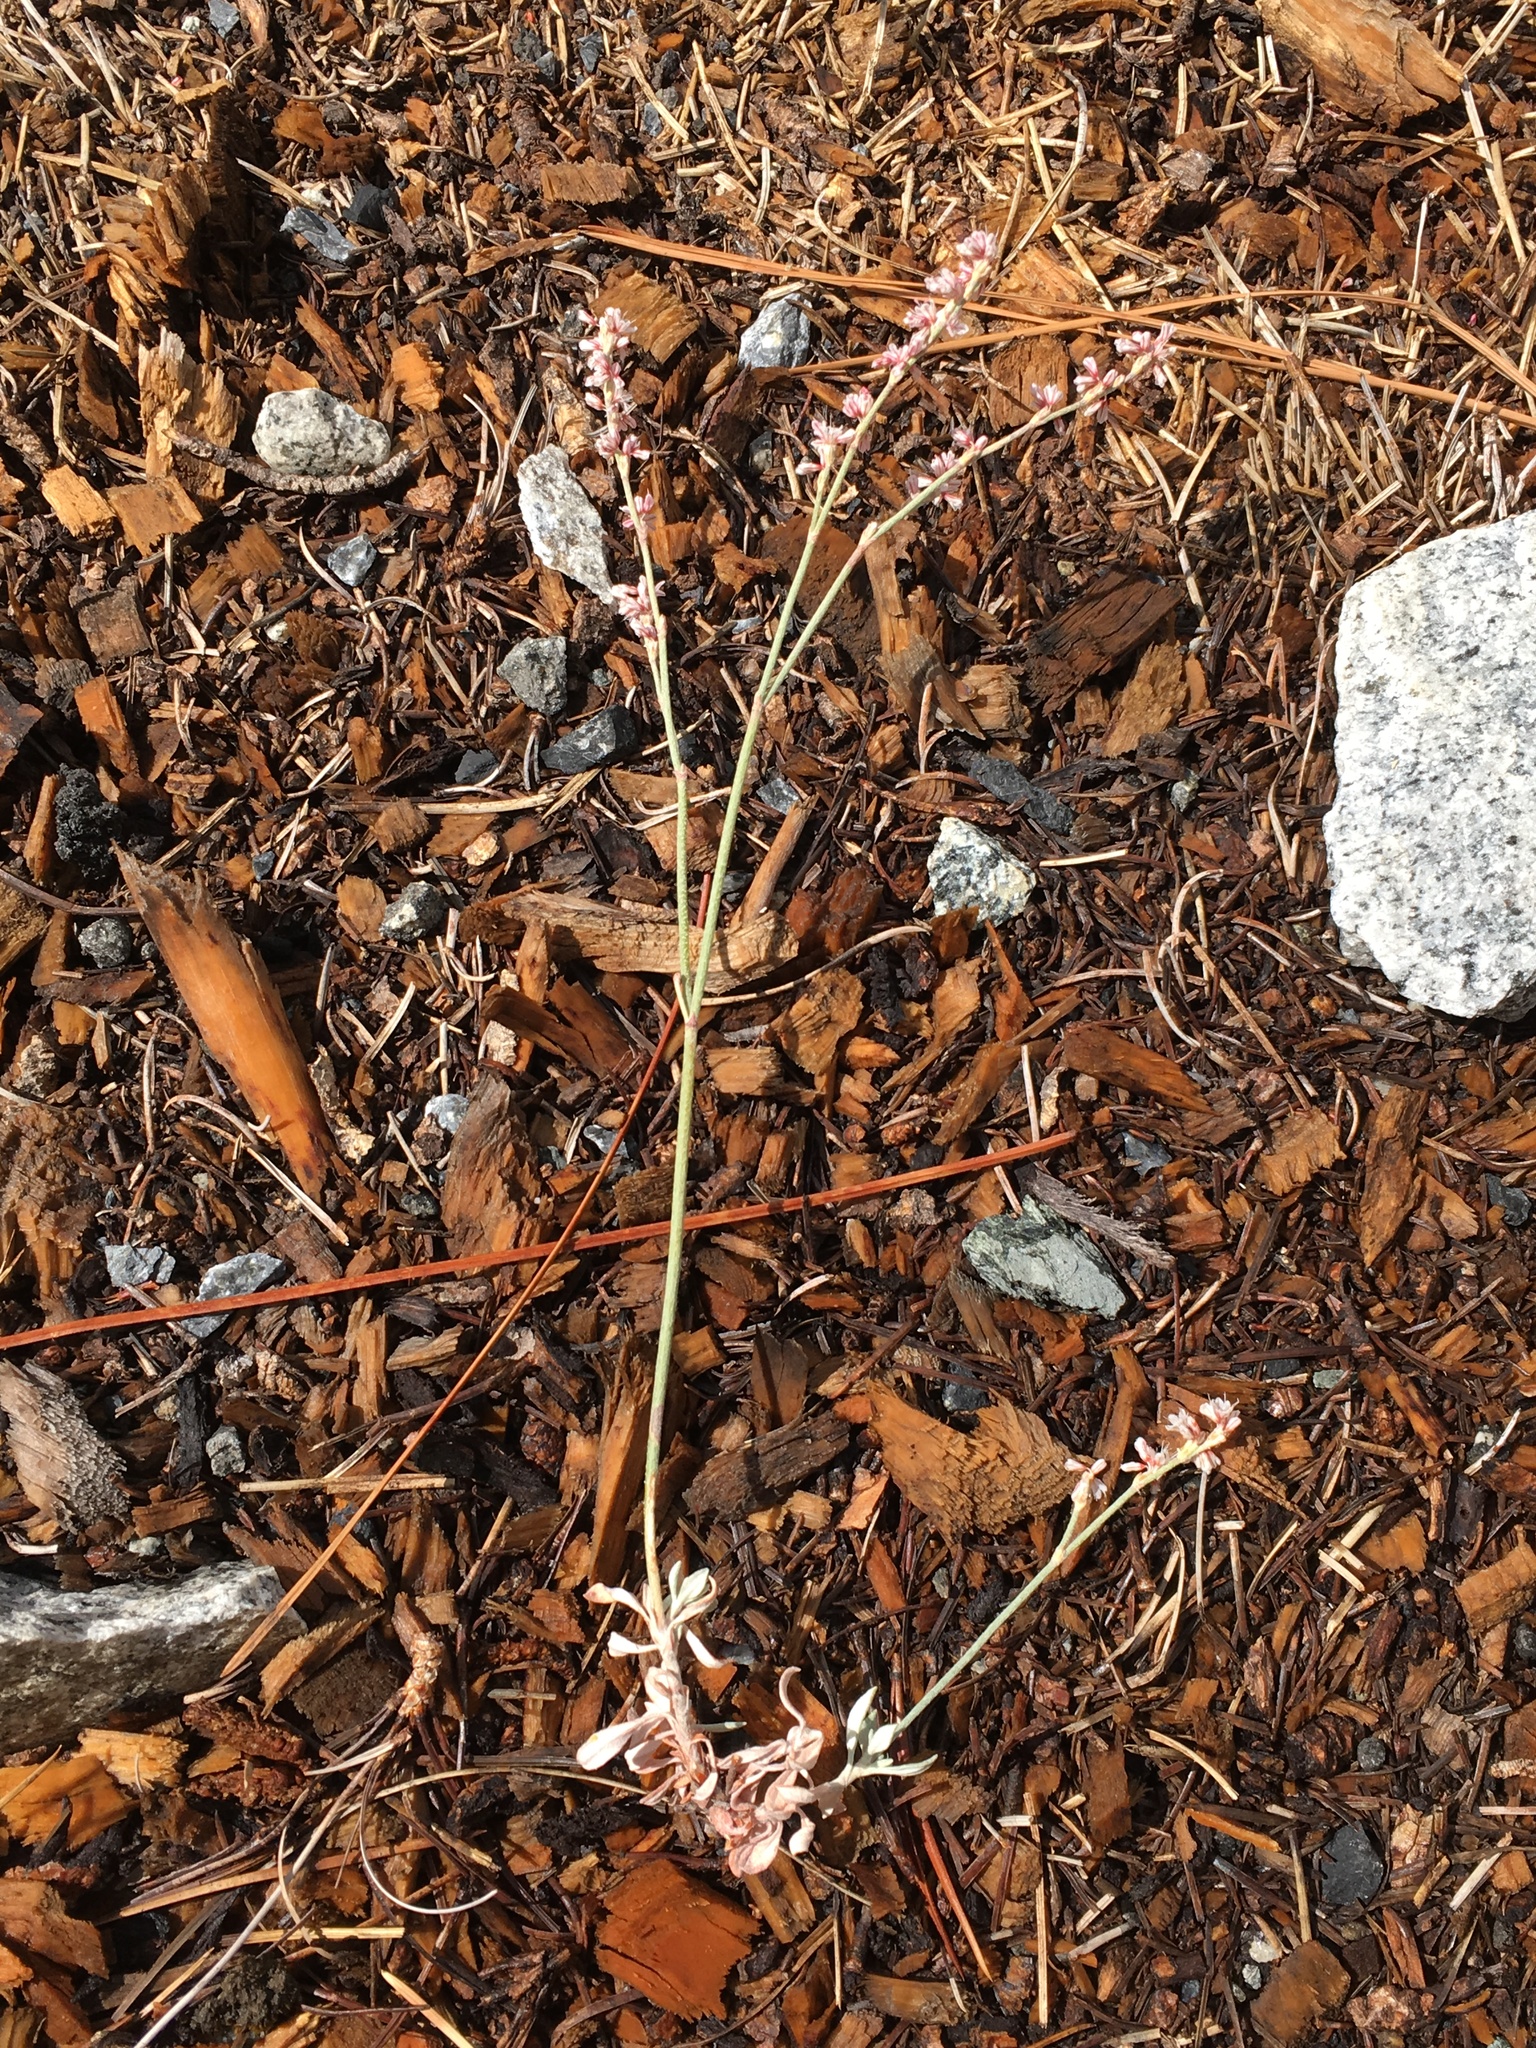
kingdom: Plantae
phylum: Tracheophyta
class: Magnoliopsida
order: Caryophyllales
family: Polygonaceae
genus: Eriogonum
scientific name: Eriogonum wrightii
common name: Bastard-sage
